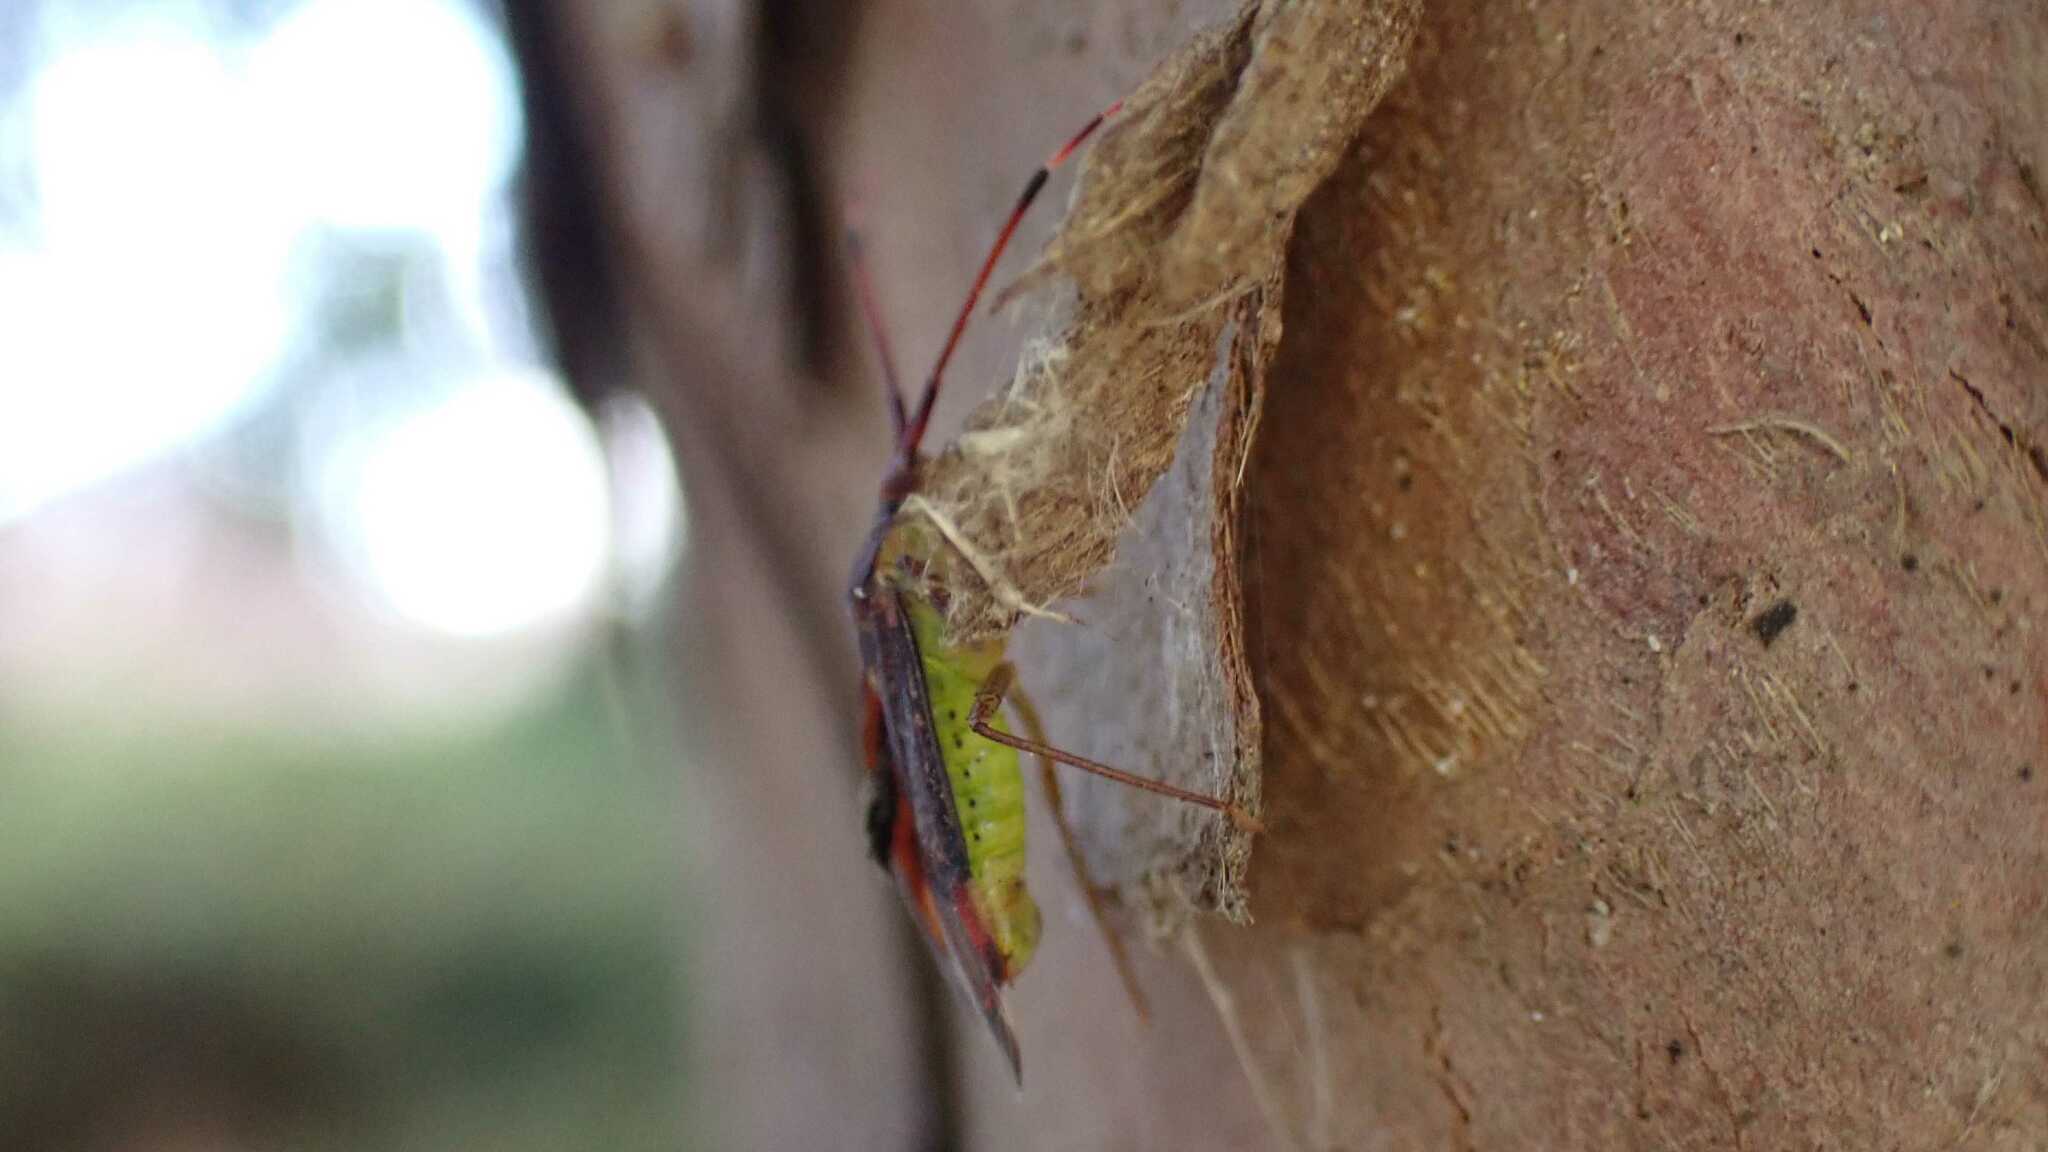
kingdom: Animalia
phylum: Arthropoda
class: Insecta
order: Hemiptera
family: Miridae
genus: Pantilius
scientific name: Pantilius tunicatus
